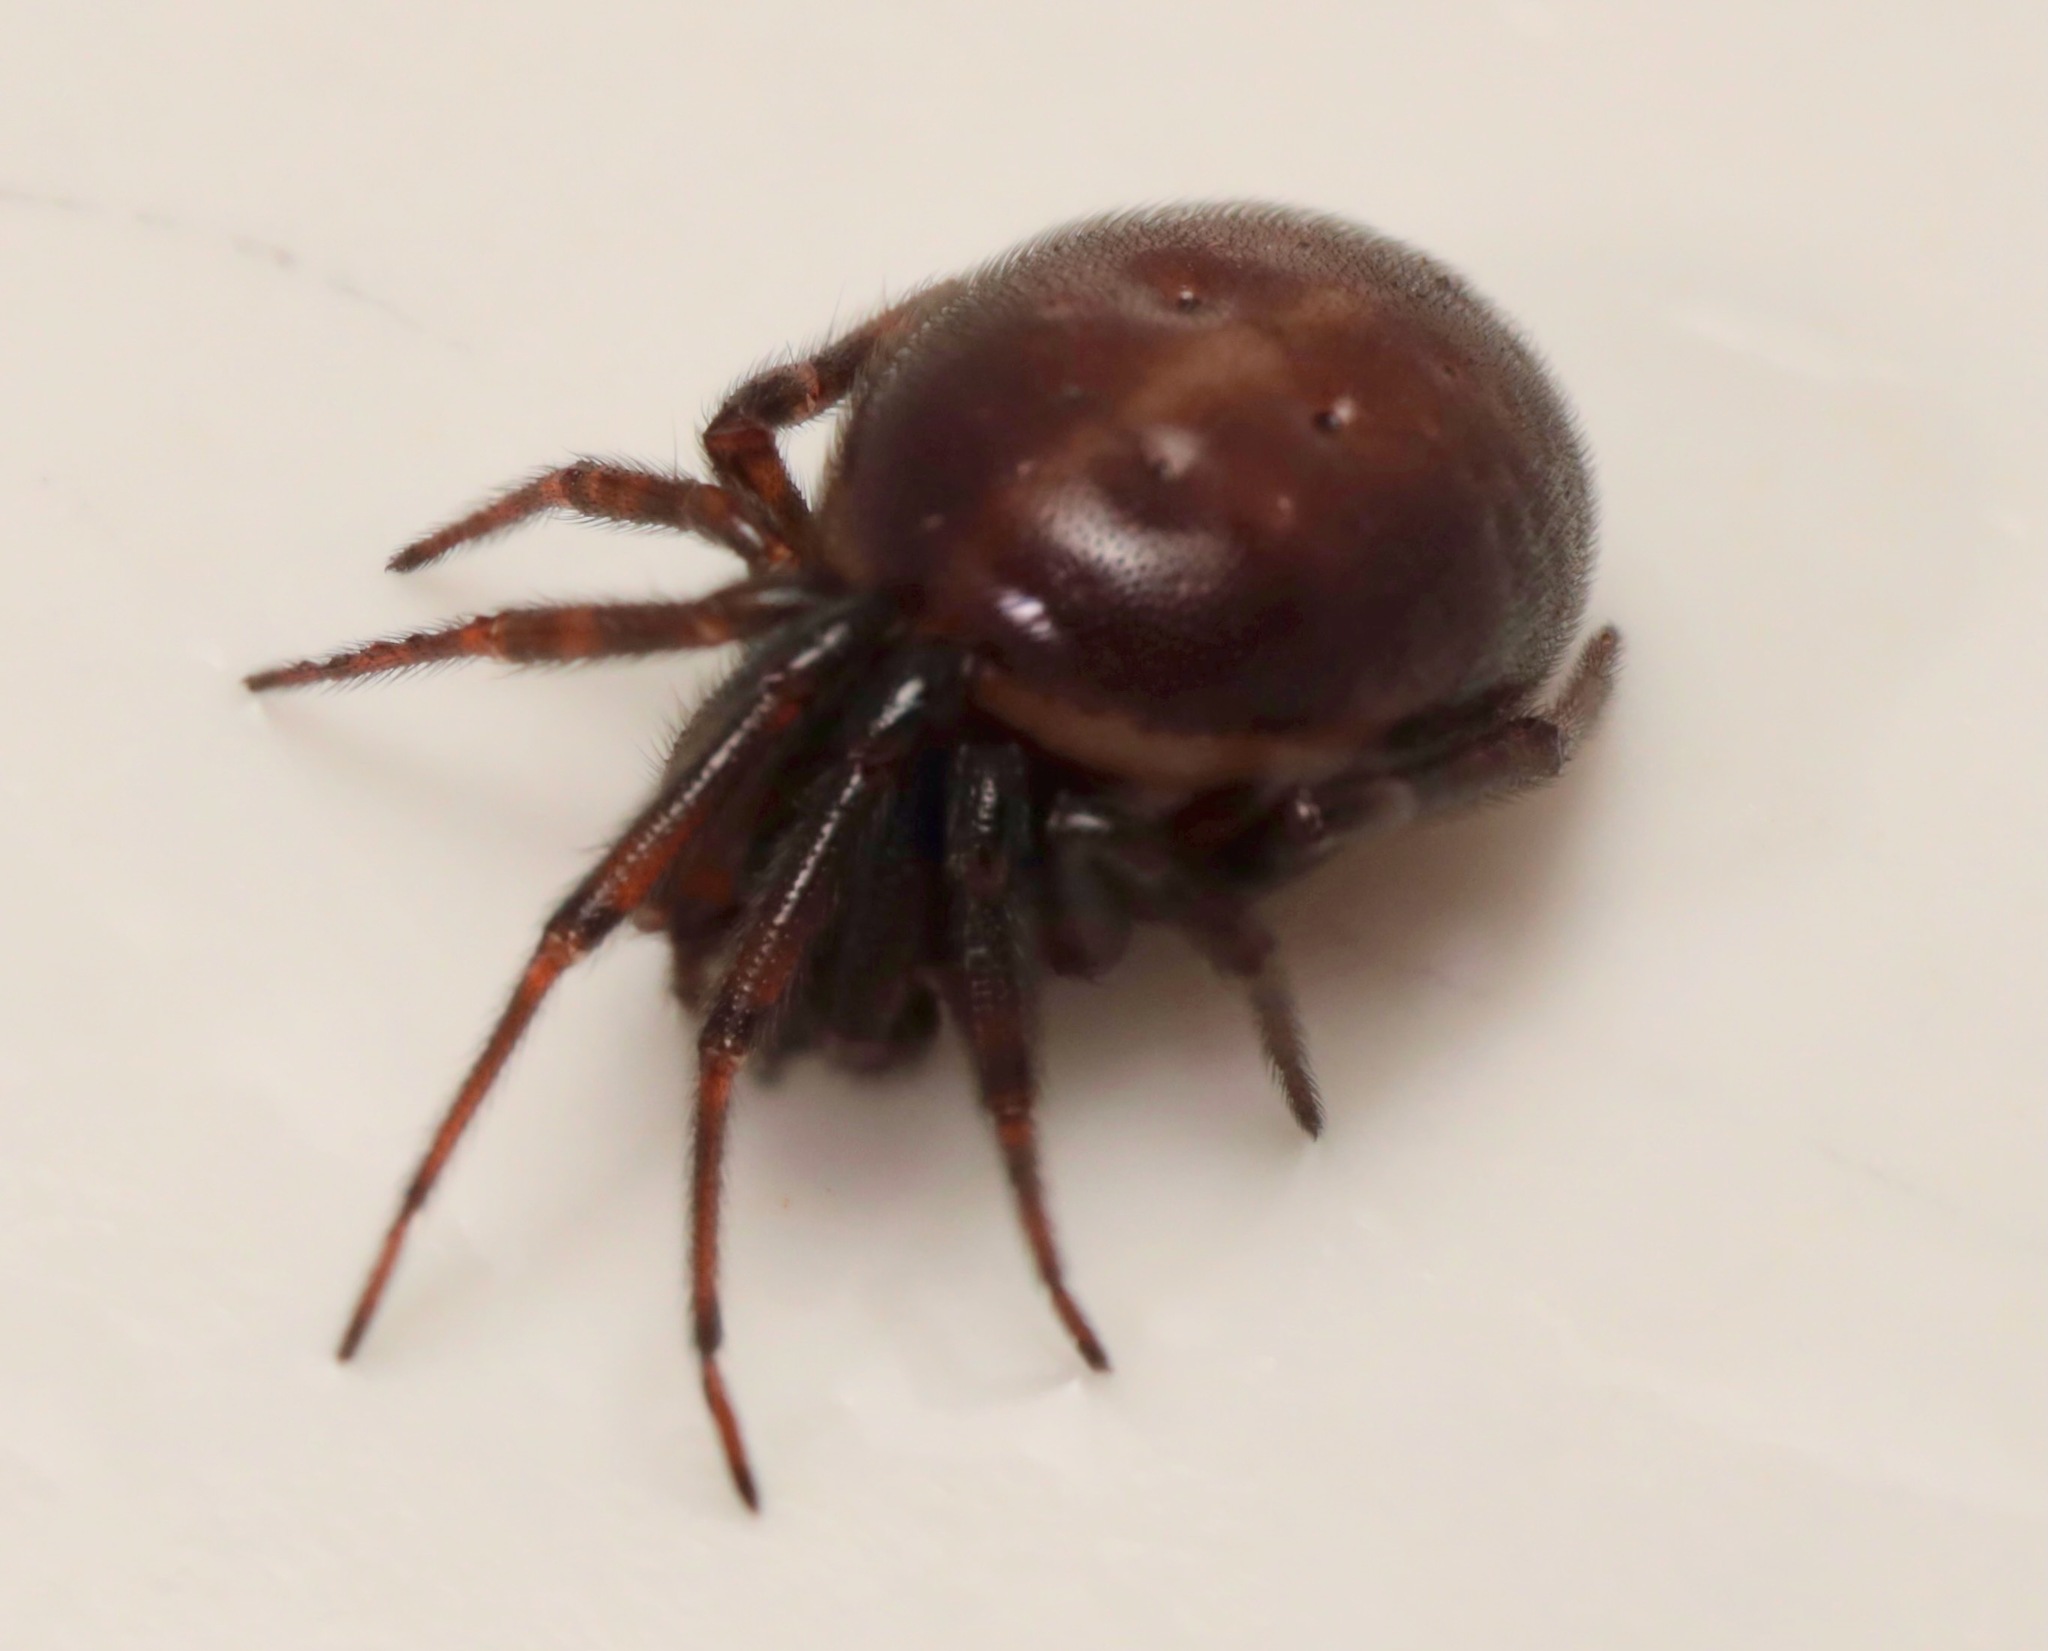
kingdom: Animalia
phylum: Arthropoda
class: Arachnida
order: Araneae
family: Theridiidae
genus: Steatoda
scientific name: Steatoda borealis
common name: Boreal combfoot
